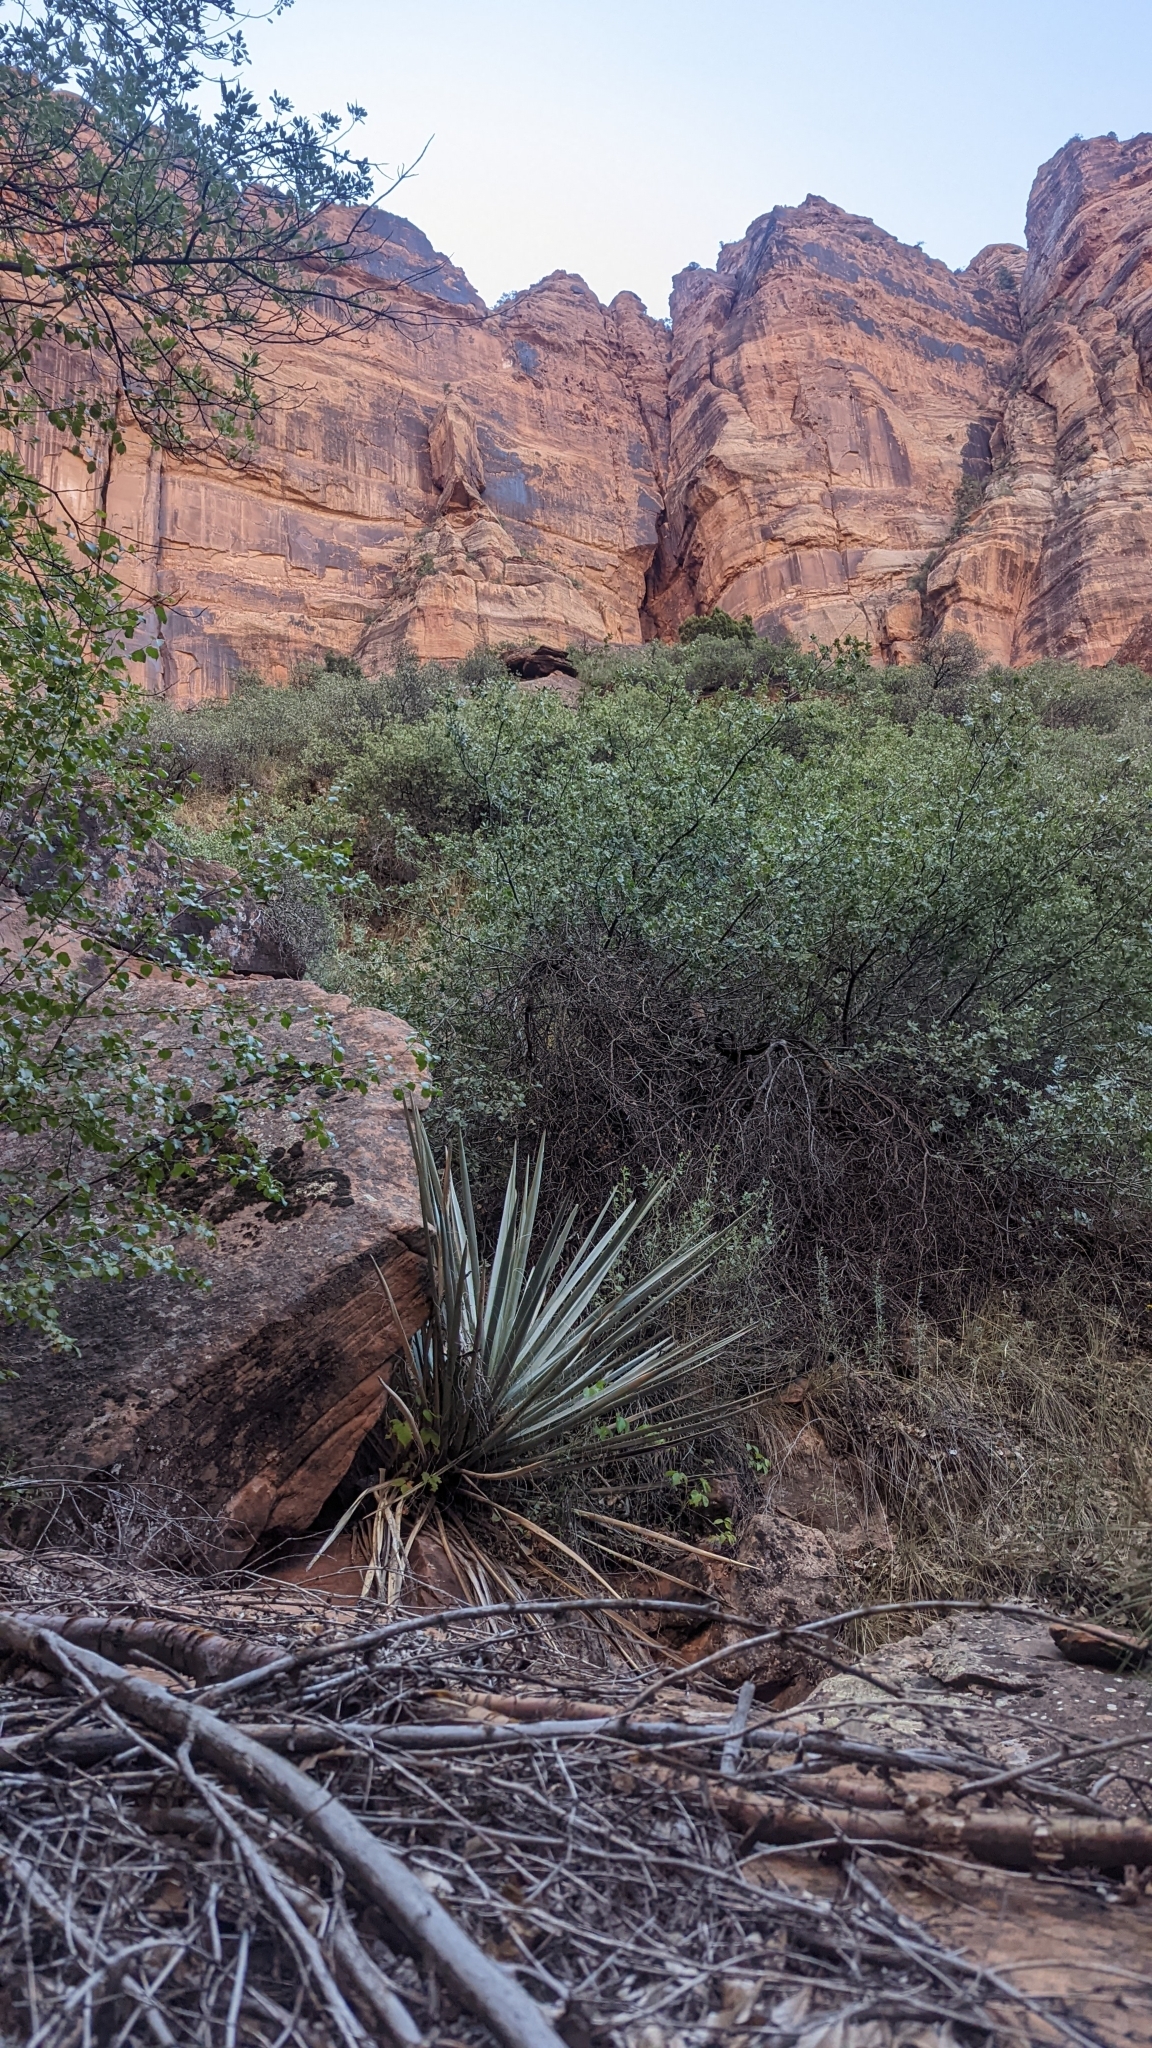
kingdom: Plantae
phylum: Tracheophyta
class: Liliopsida
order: Asparagales
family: Asparagaceae
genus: Yucca
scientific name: Yucca baccata
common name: Banana yucca
